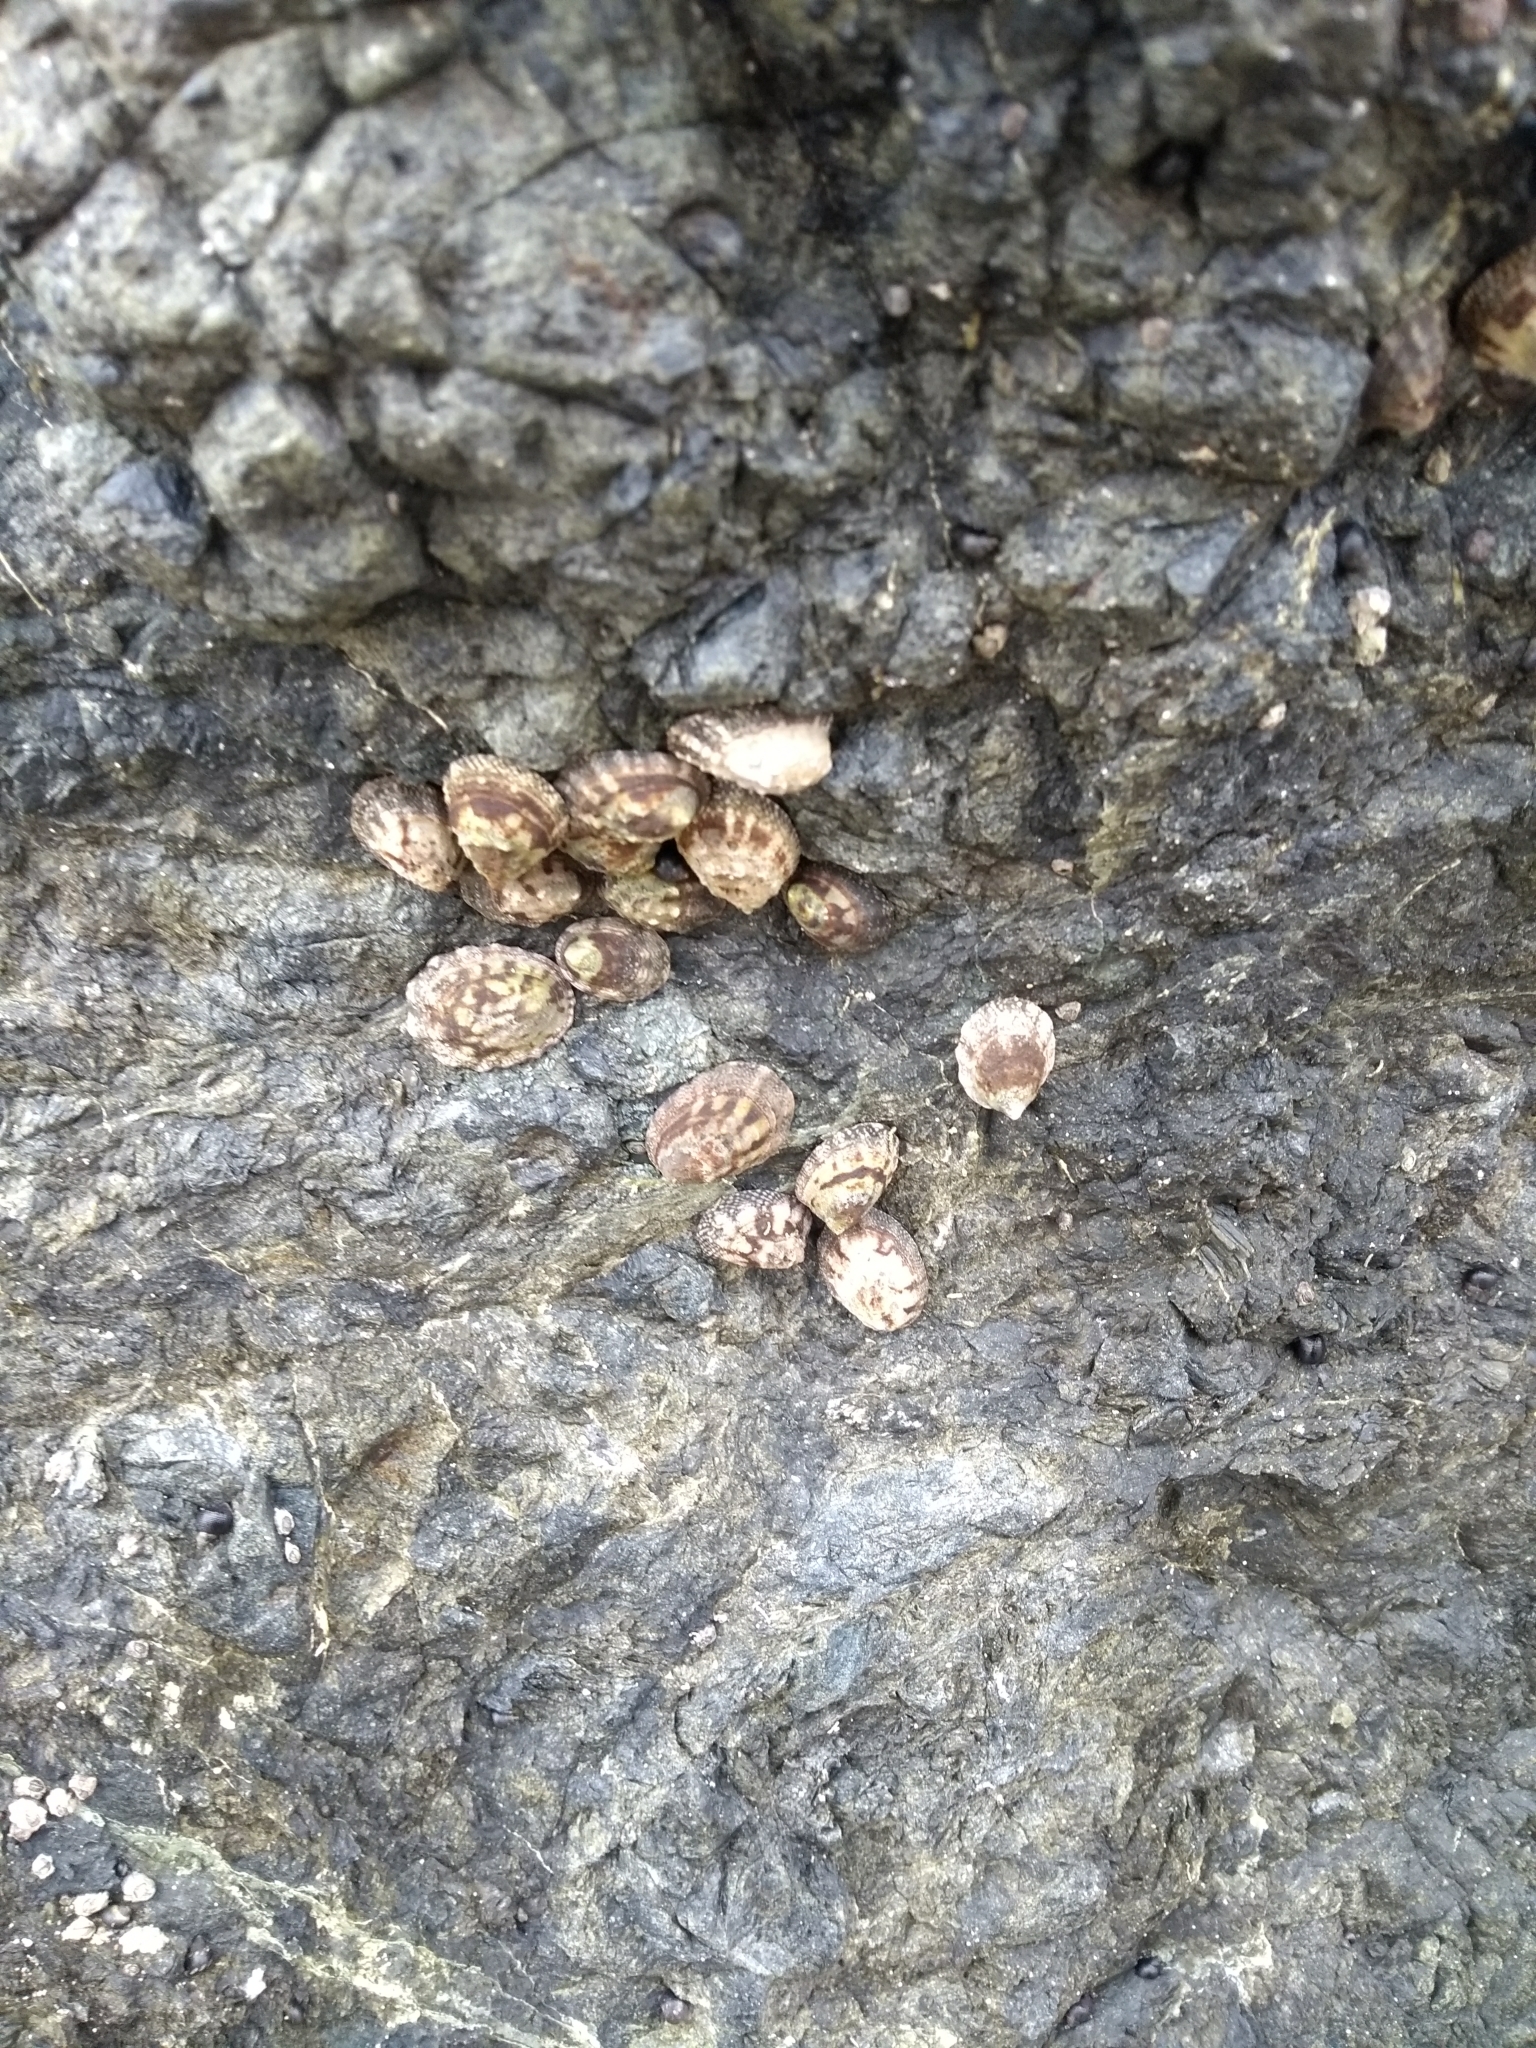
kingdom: Animalia
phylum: Mollusca
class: Gastropoda
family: Lottiidae
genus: Lottia
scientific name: Lottia digitalis
